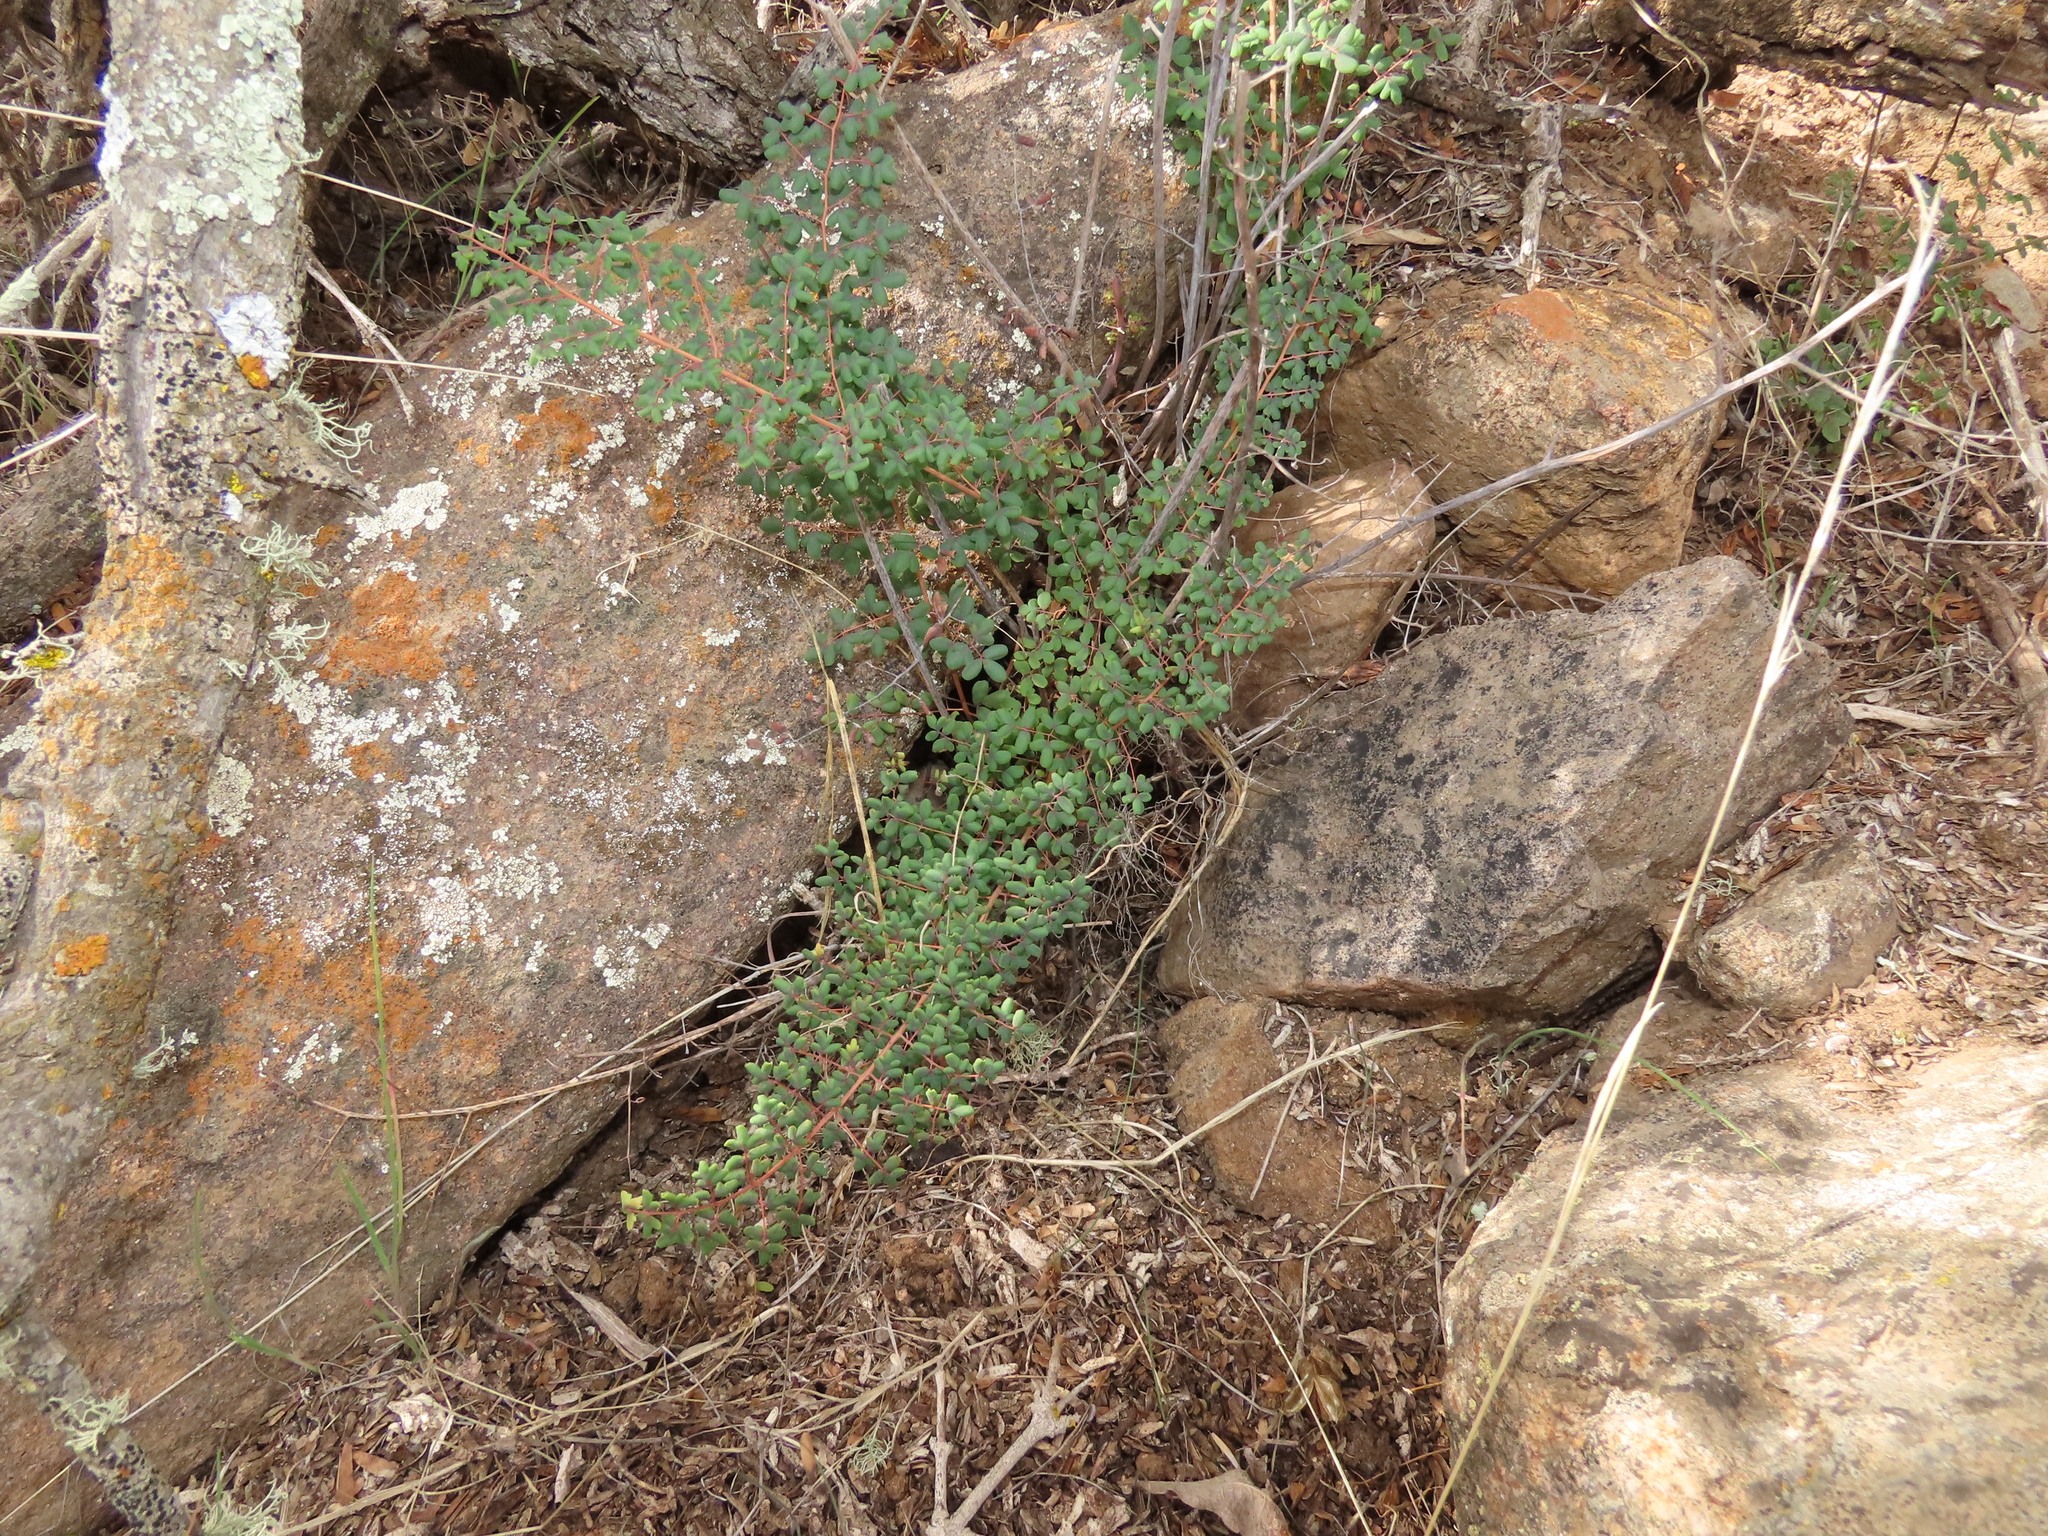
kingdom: Plantae
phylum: Tracheophyta
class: Polypodiopsida
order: Polypodiales
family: Pteridaceae
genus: Pellaea
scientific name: Pellaea myrtillifolia
